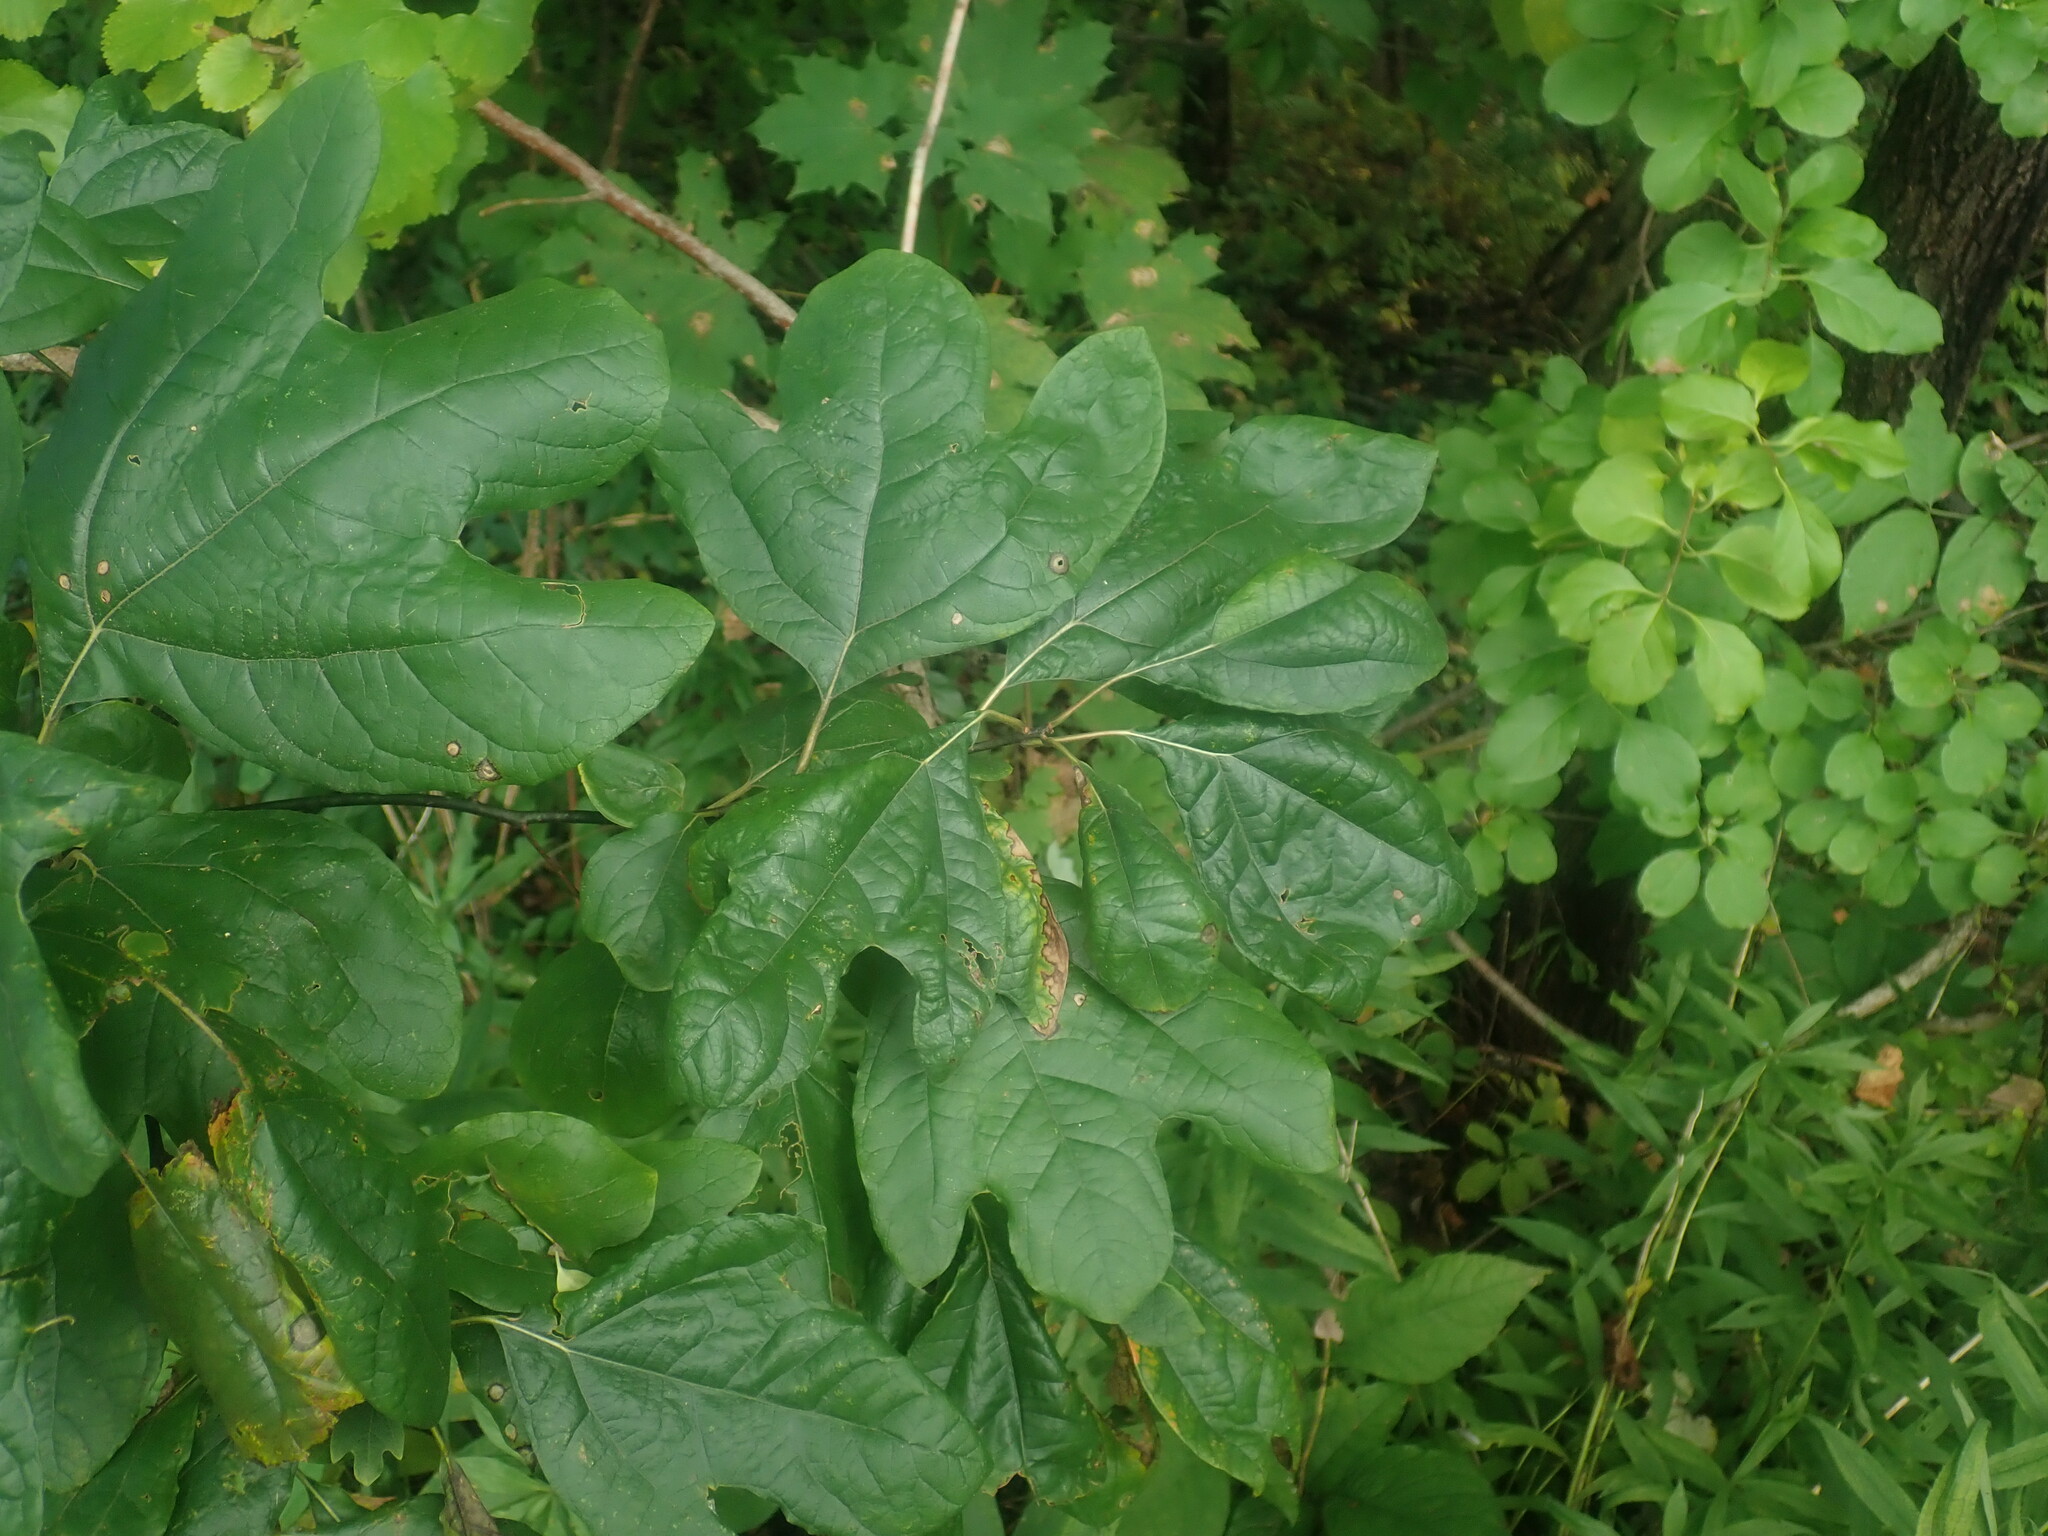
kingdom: Plantae
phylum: Tracheophyta
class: Magnoliopsida
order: Laurales
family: Lauraceae
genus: Sassafras
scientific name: Sassafras albidum
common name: Sassafras
